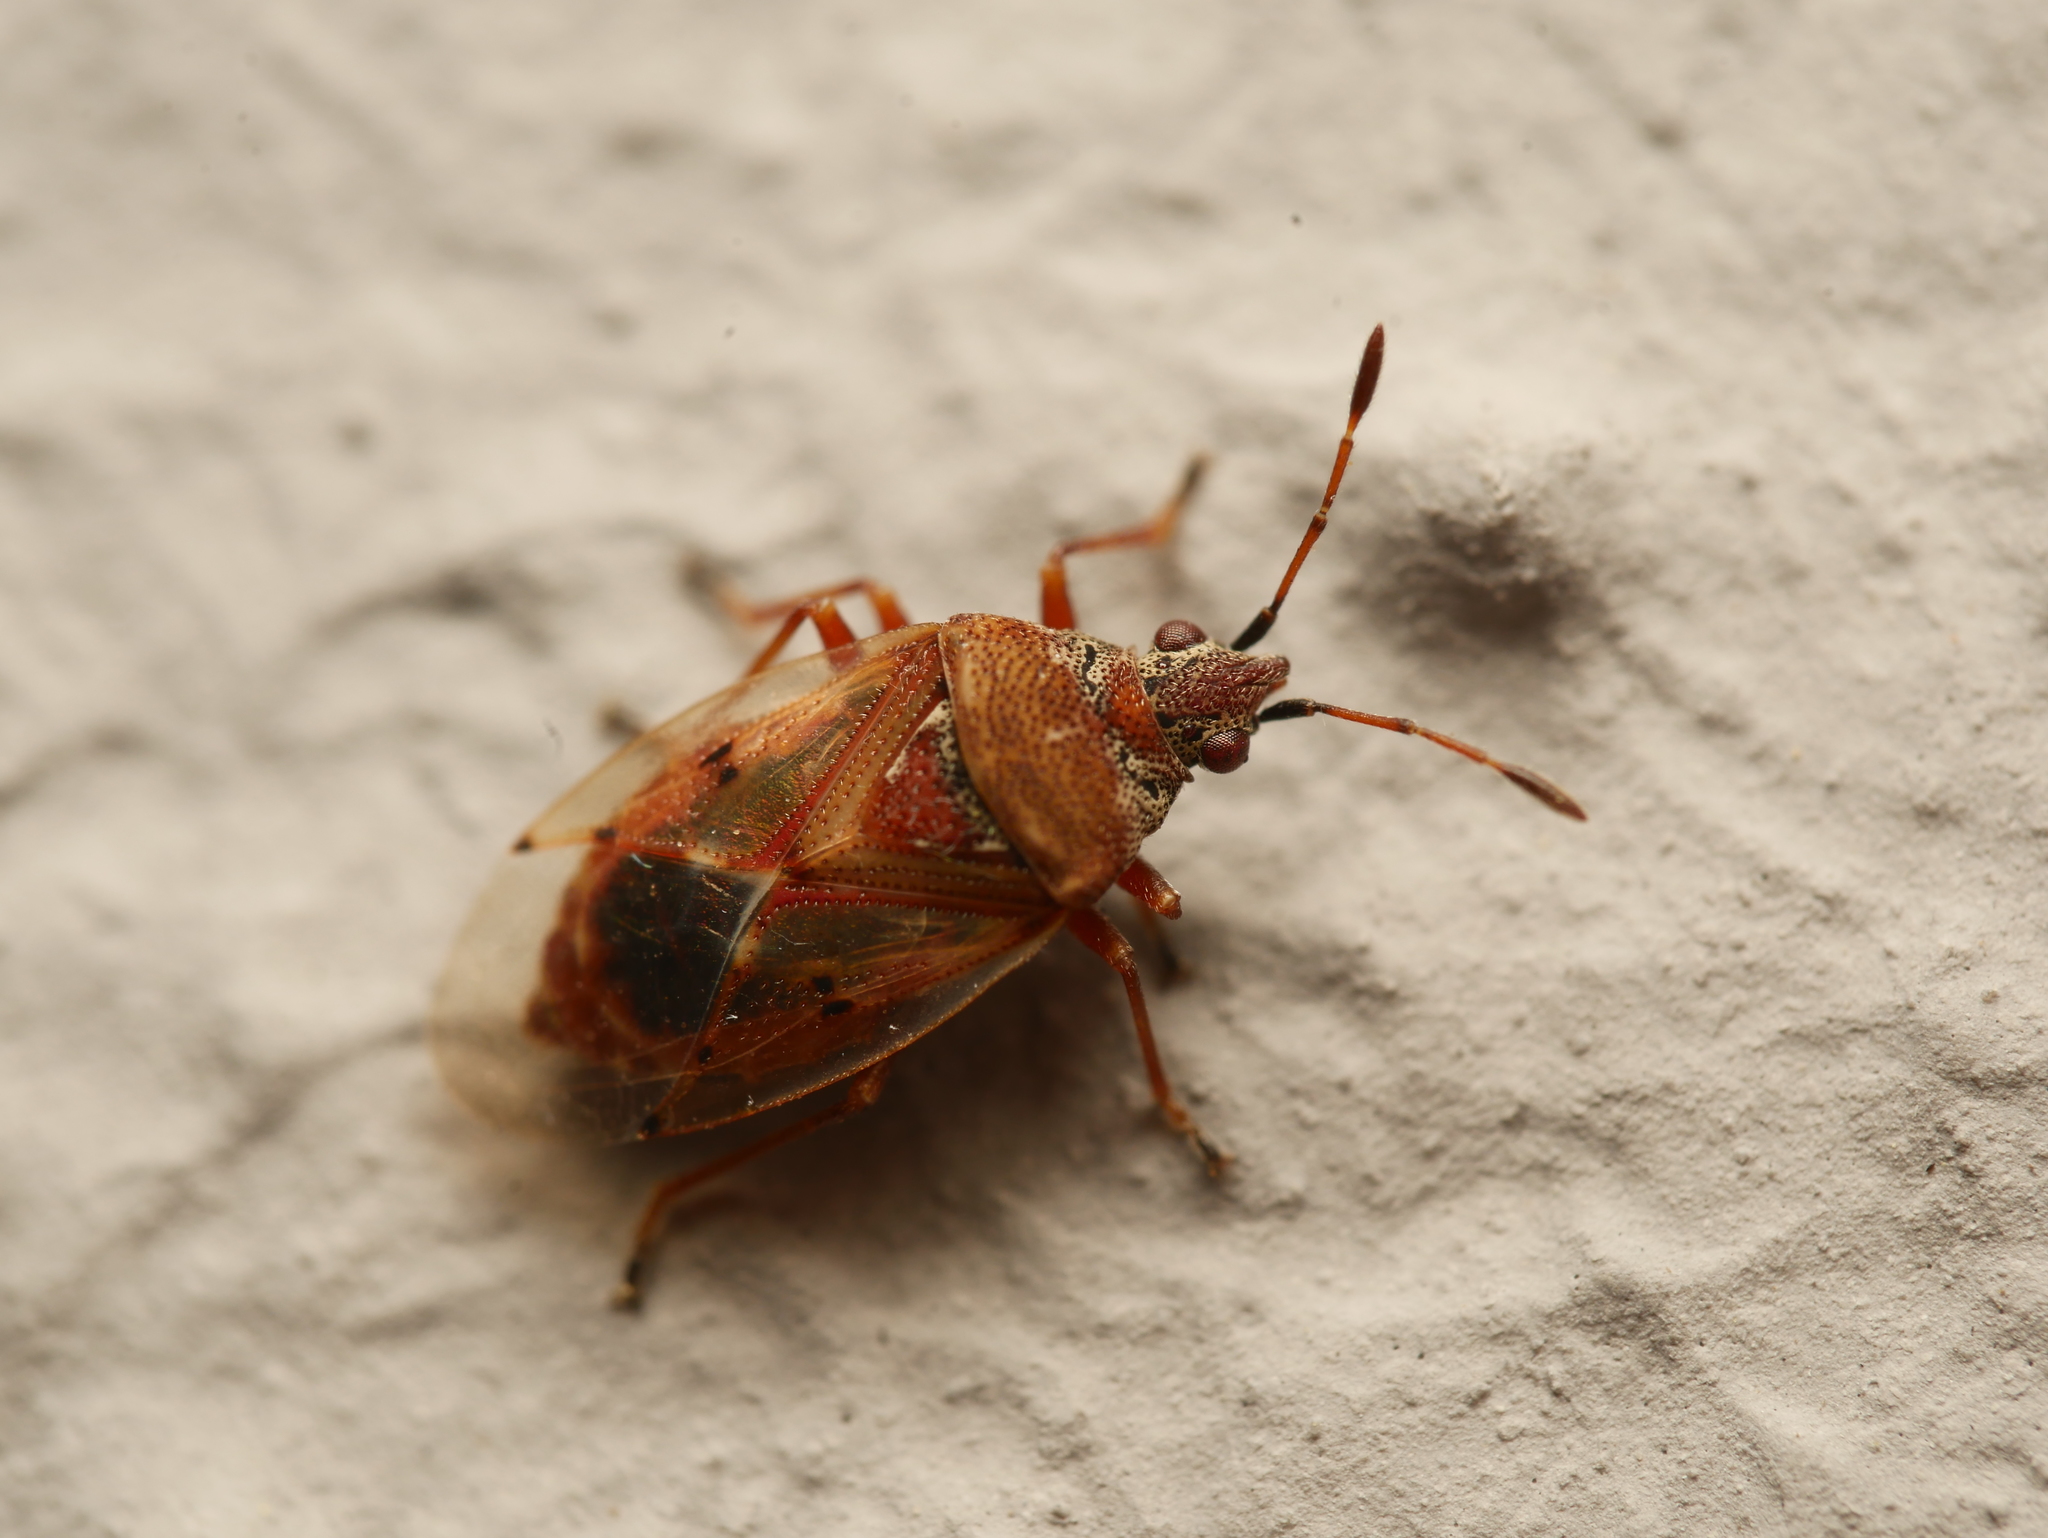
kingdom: Animalia
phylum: Arthropoda
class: Insecta
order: Hemiptera
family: Lygaeidae
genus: Kleidocerys
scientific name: Kleidocerys resedae
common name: Birch catkin bug
